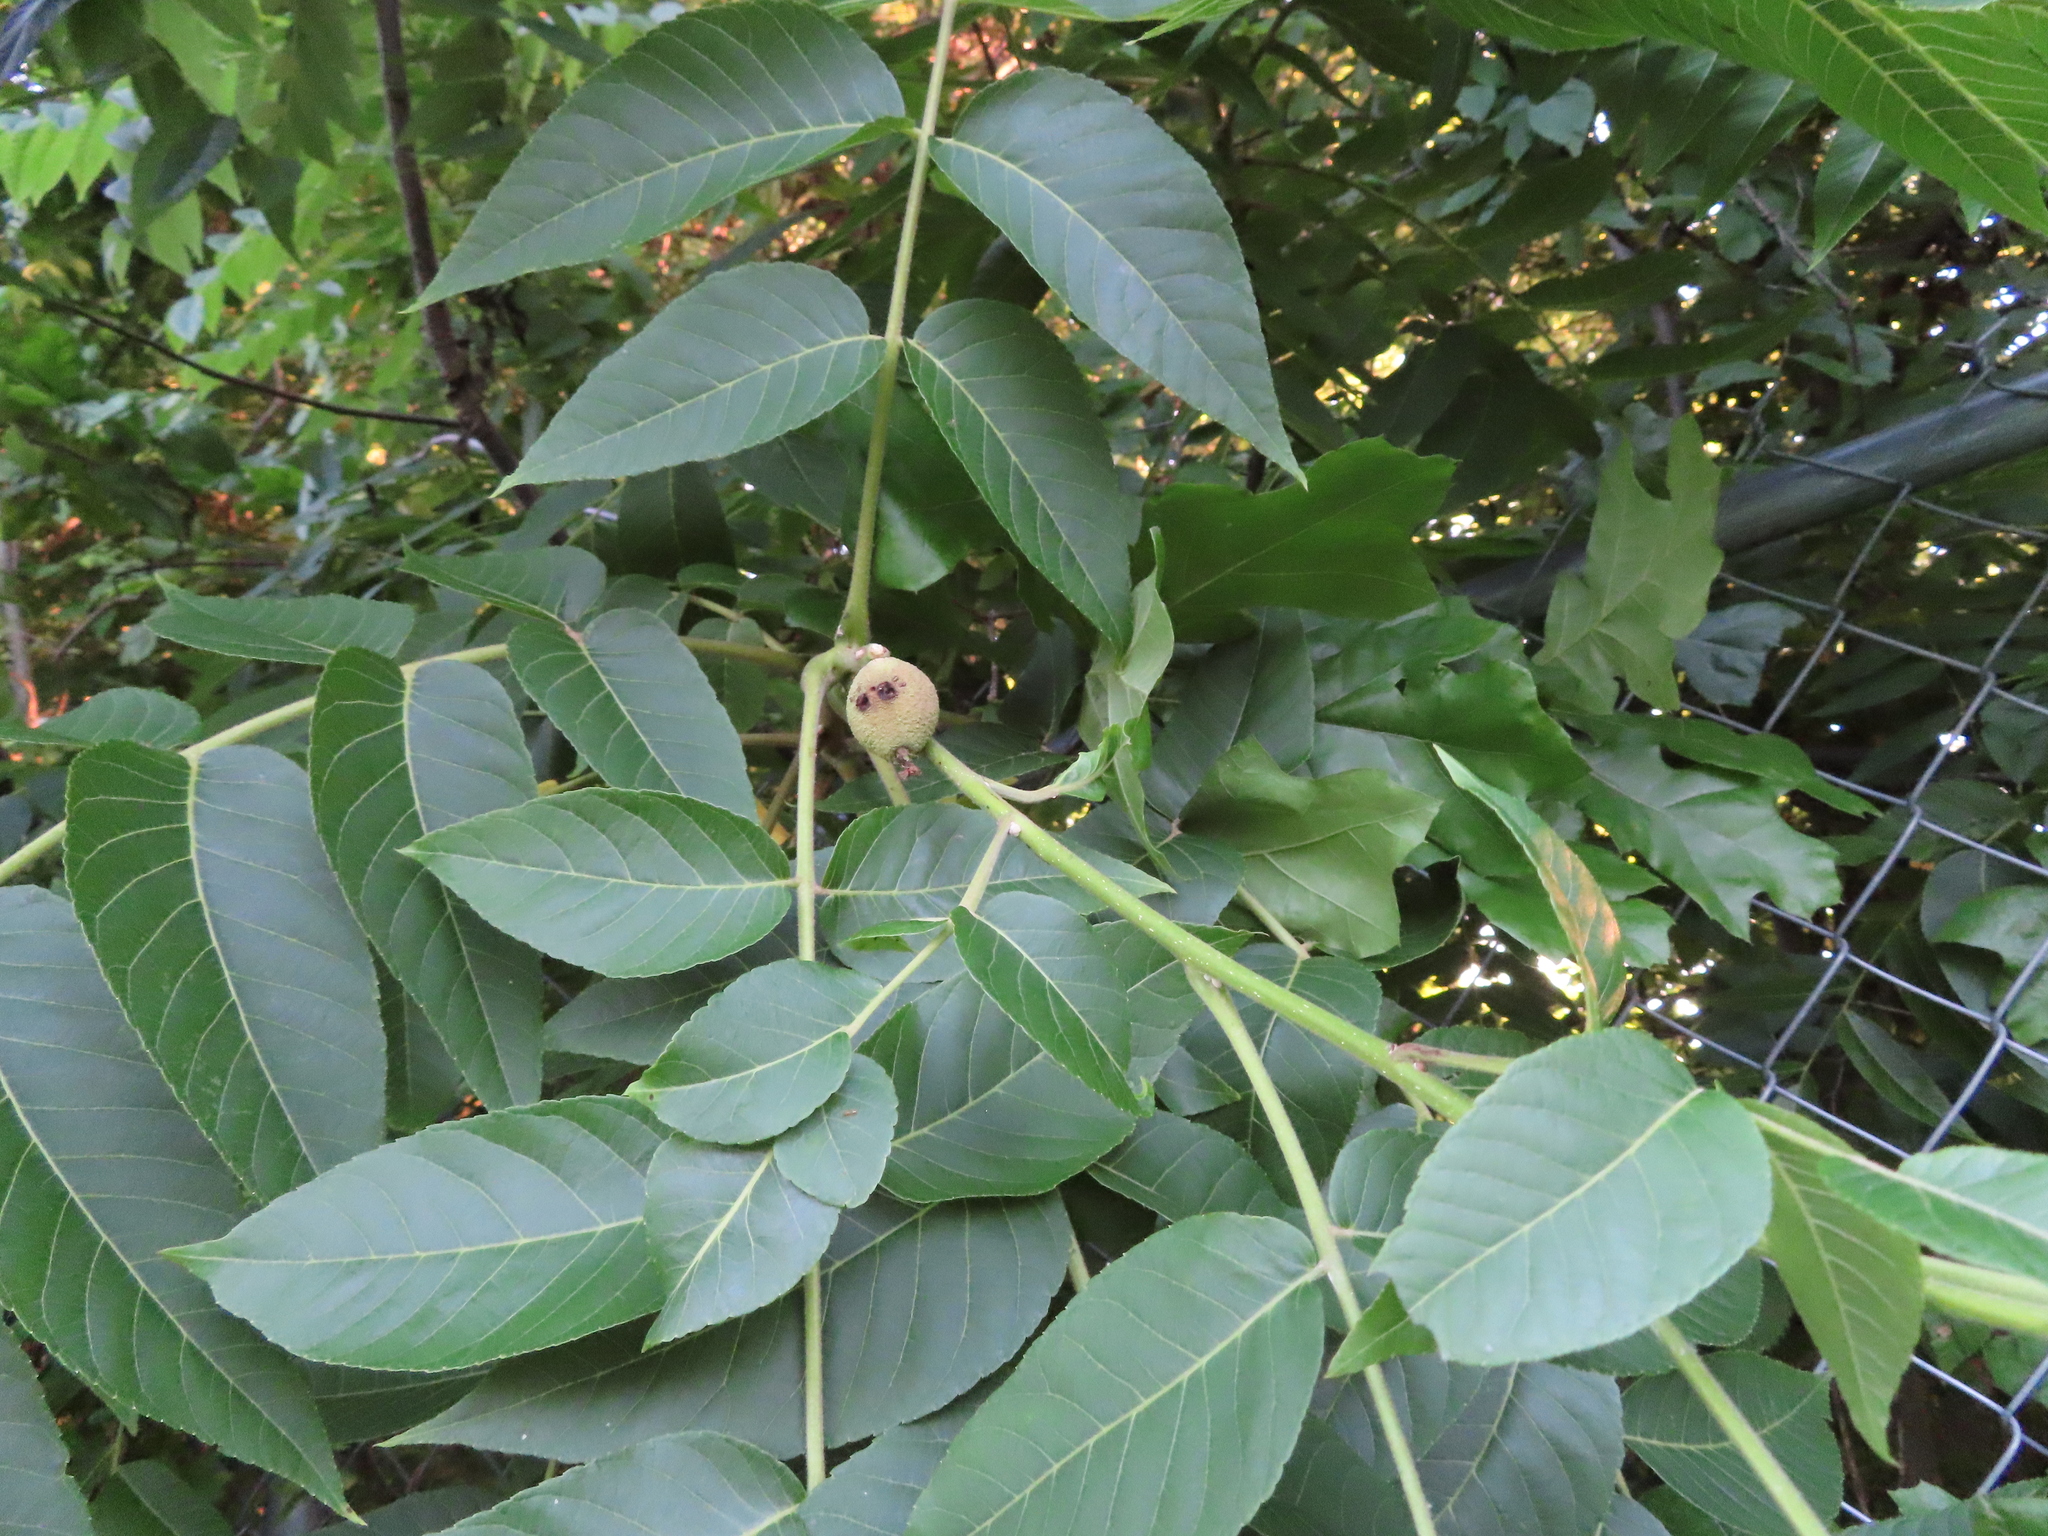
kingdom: Plantae
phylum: Tracheophyta
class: Magnoliopsida
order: Fagales
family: Juglandaceae
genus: Juglans
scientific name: Juglans nigra
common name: Black walnut
